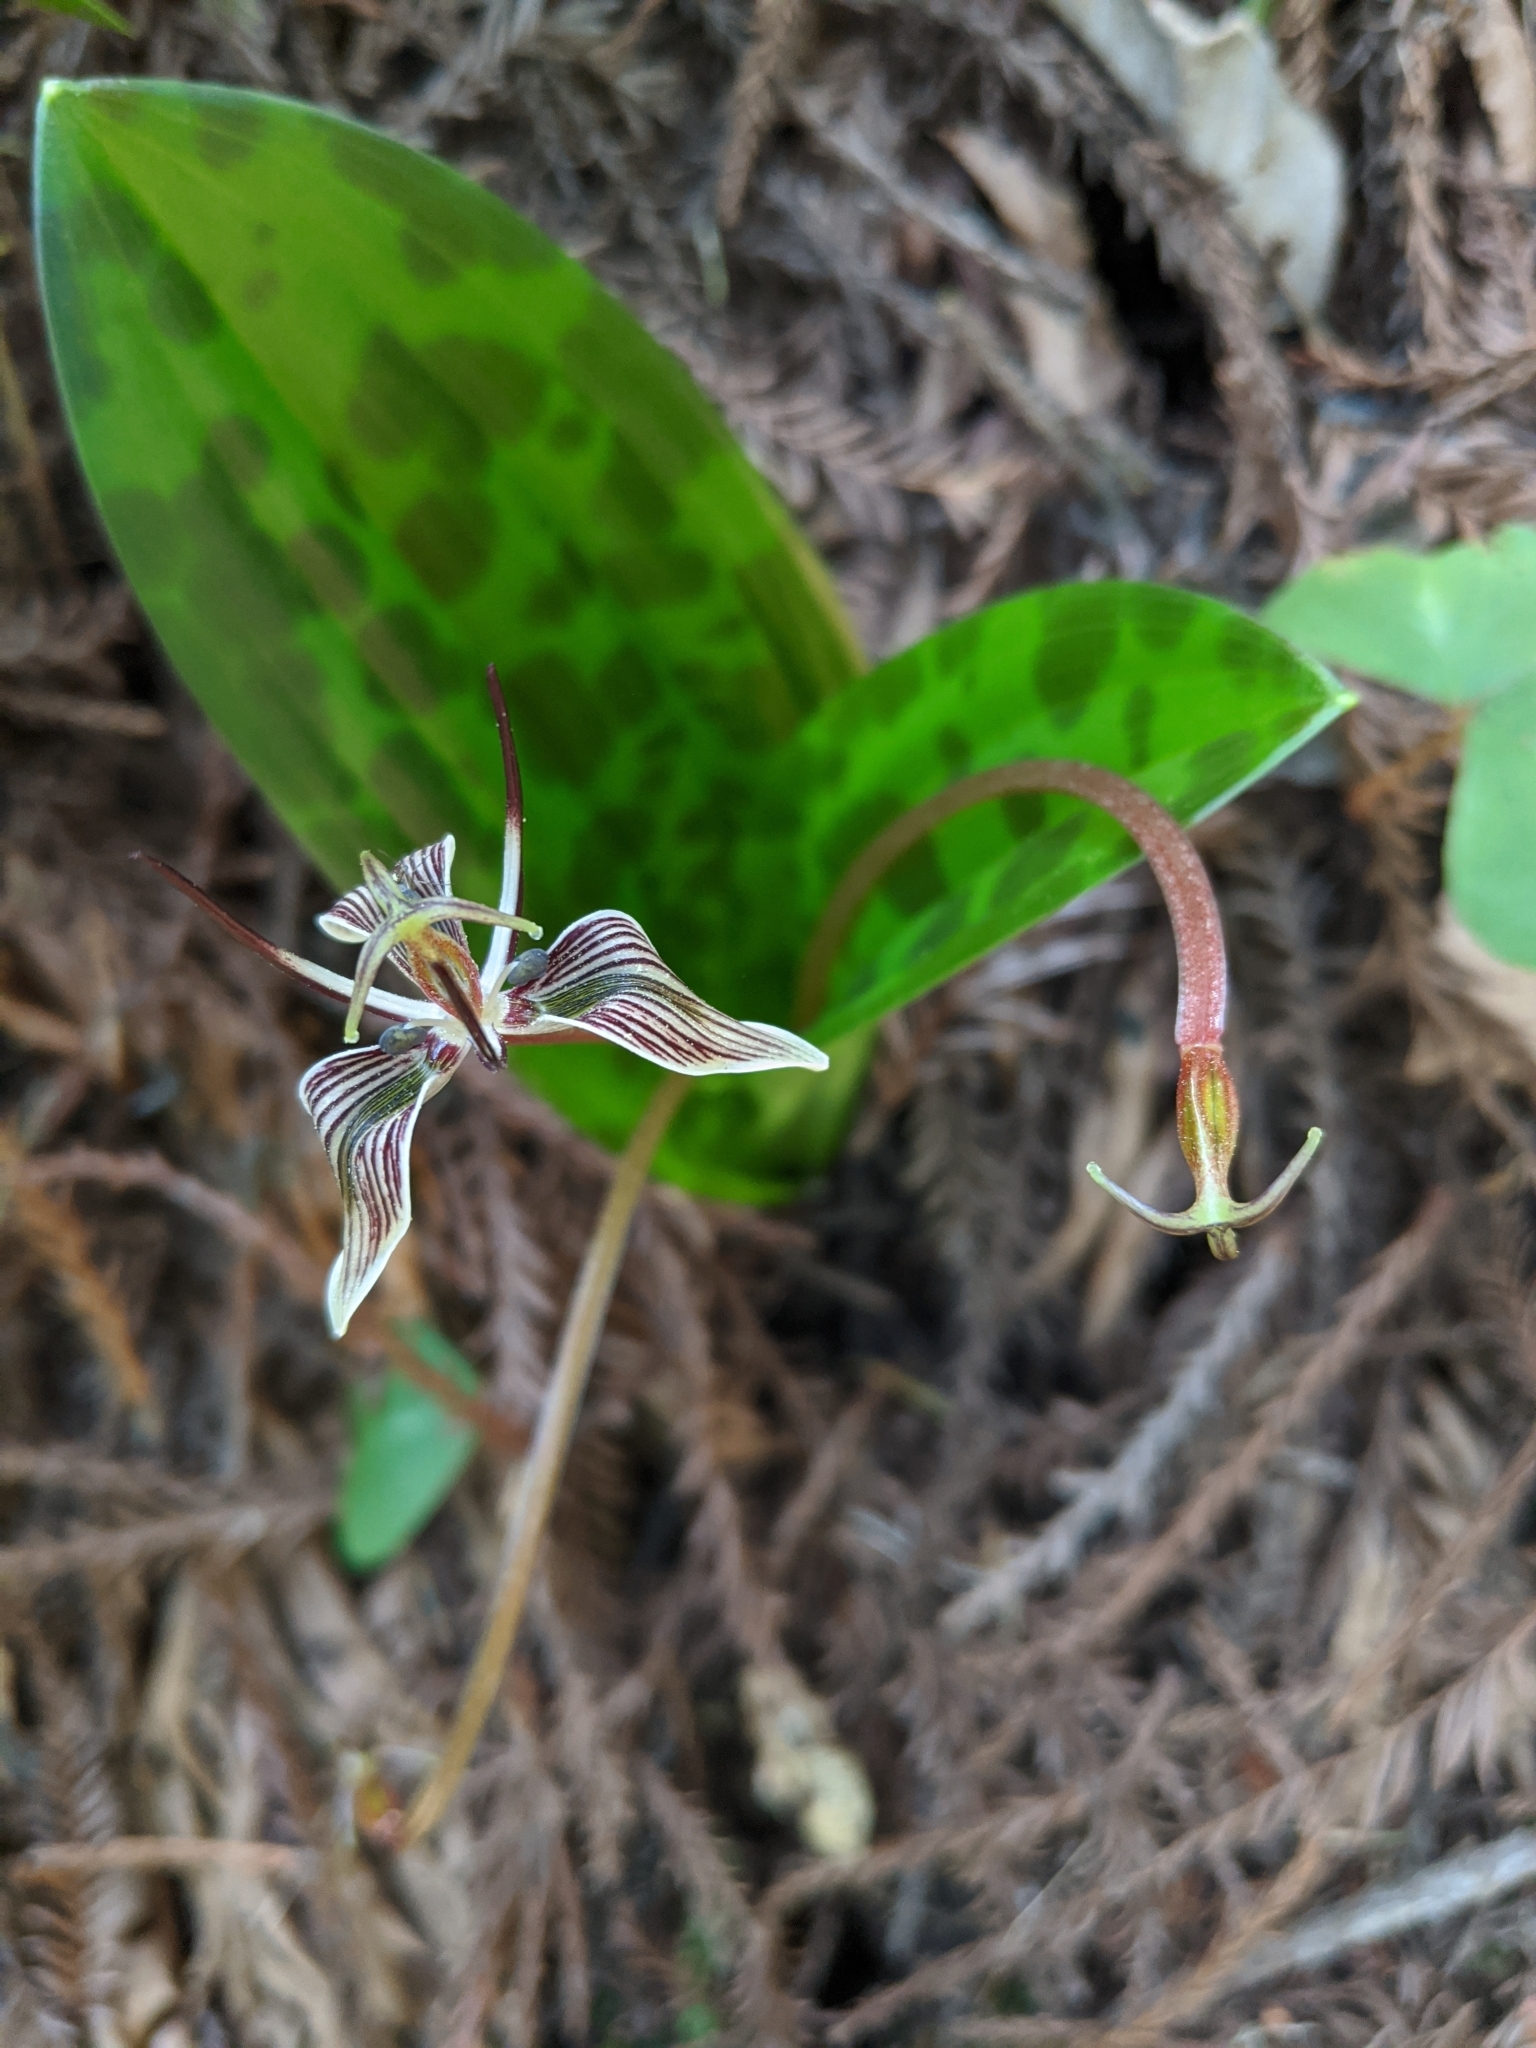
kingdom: Plantae
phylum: Tracheophyta
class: Liliopsida
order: Liliales
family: Liliaceae
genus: Scoliopus
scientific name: Scoliopus bigelovii
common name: Foetid adder's-tongue
